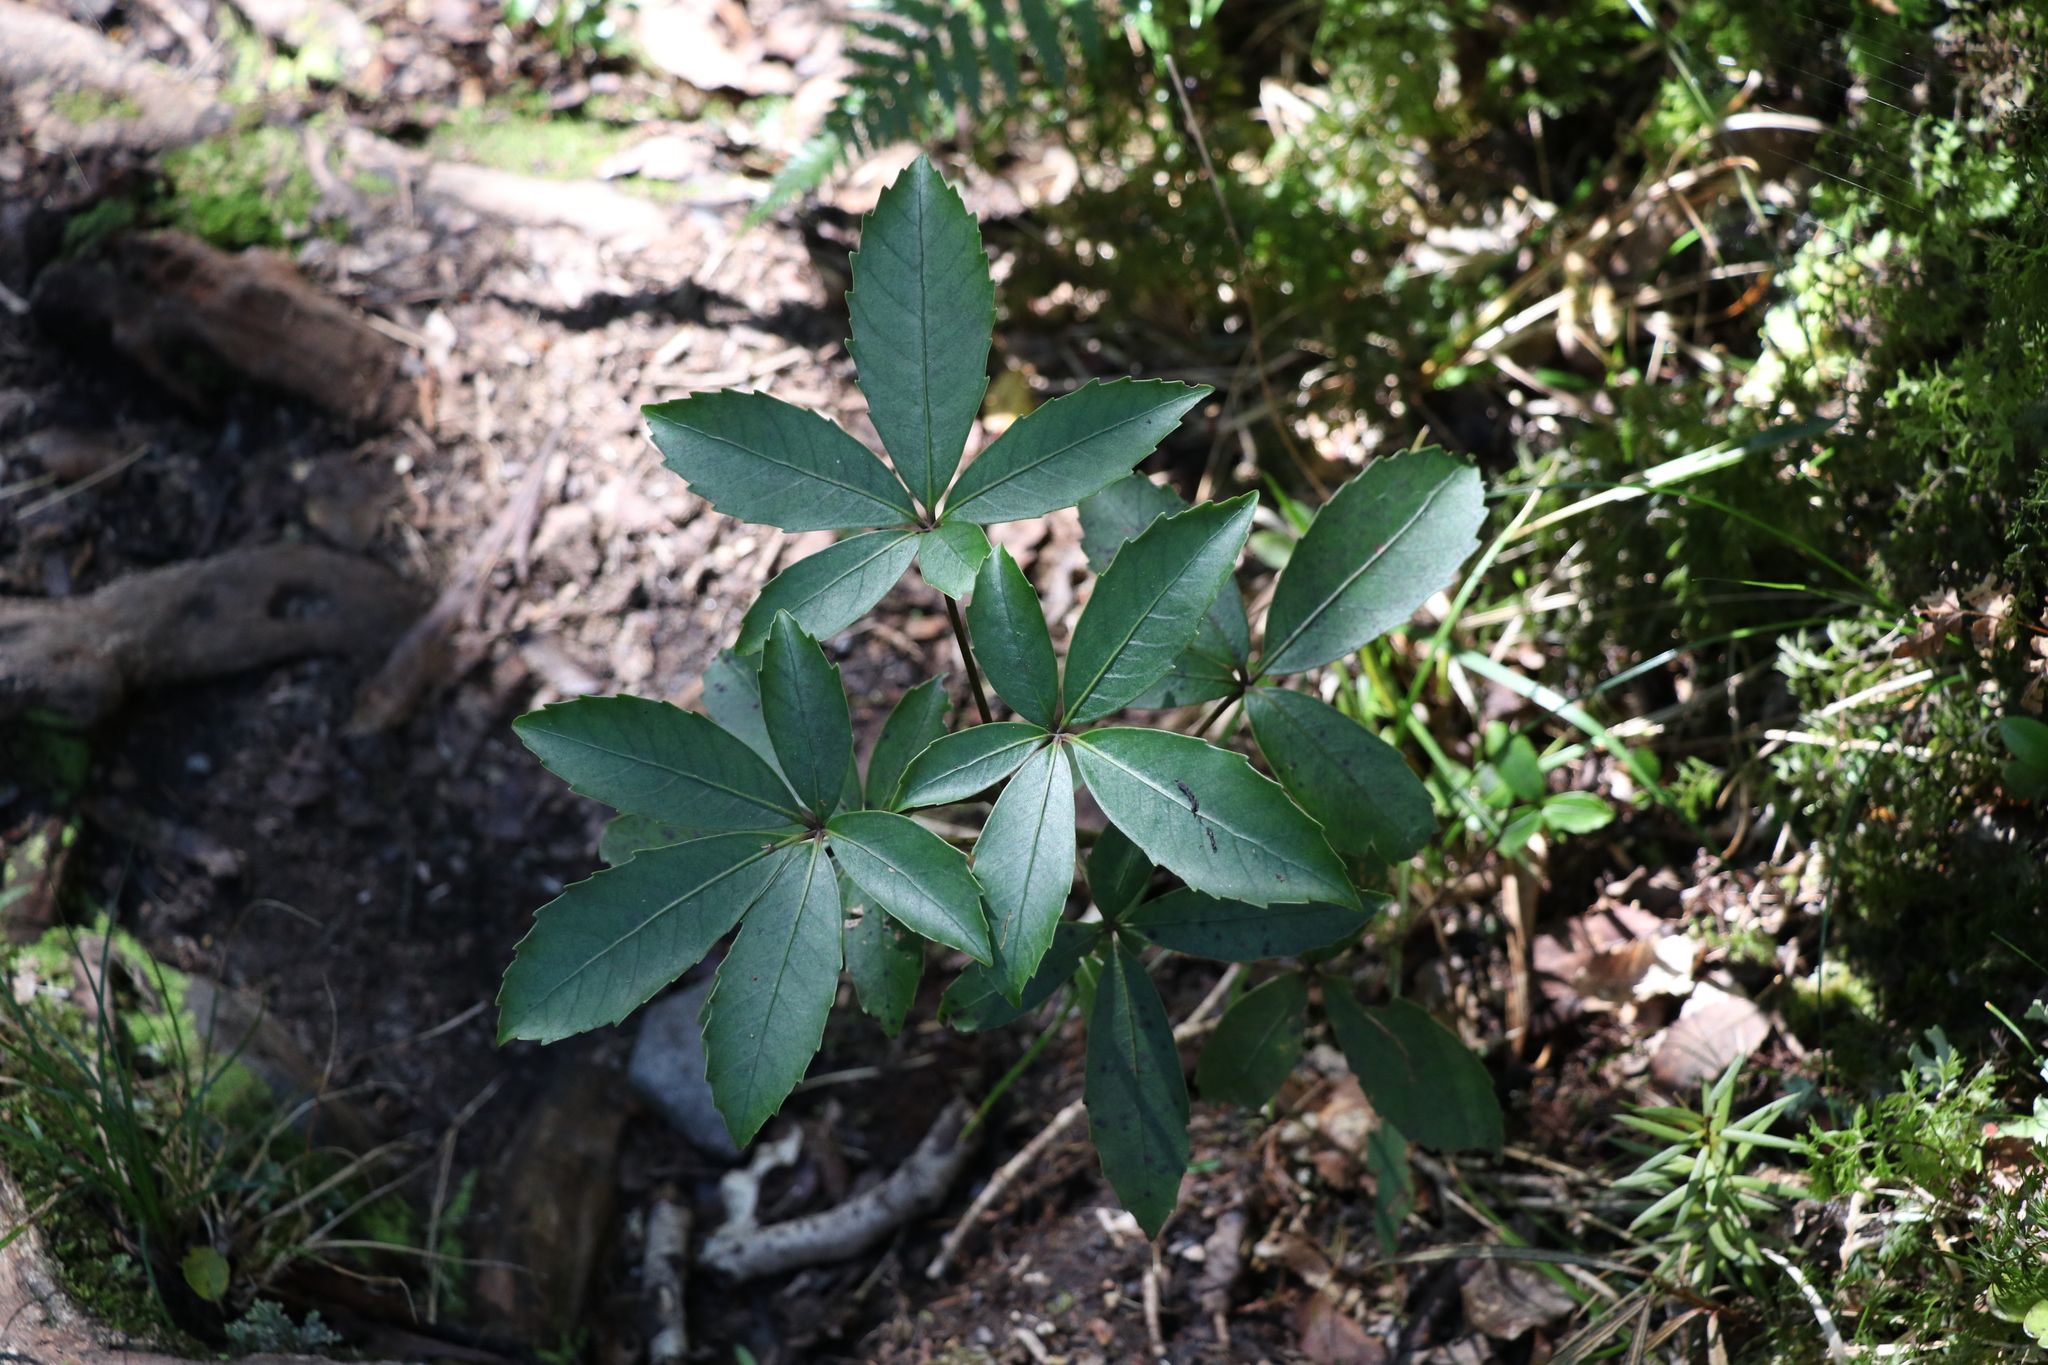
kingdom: Plantae
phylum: Tracheophyta
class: Magnoliopsida
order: Apiales
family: Araliaceae
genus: Neopanax
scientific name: Neopanax colensoi
